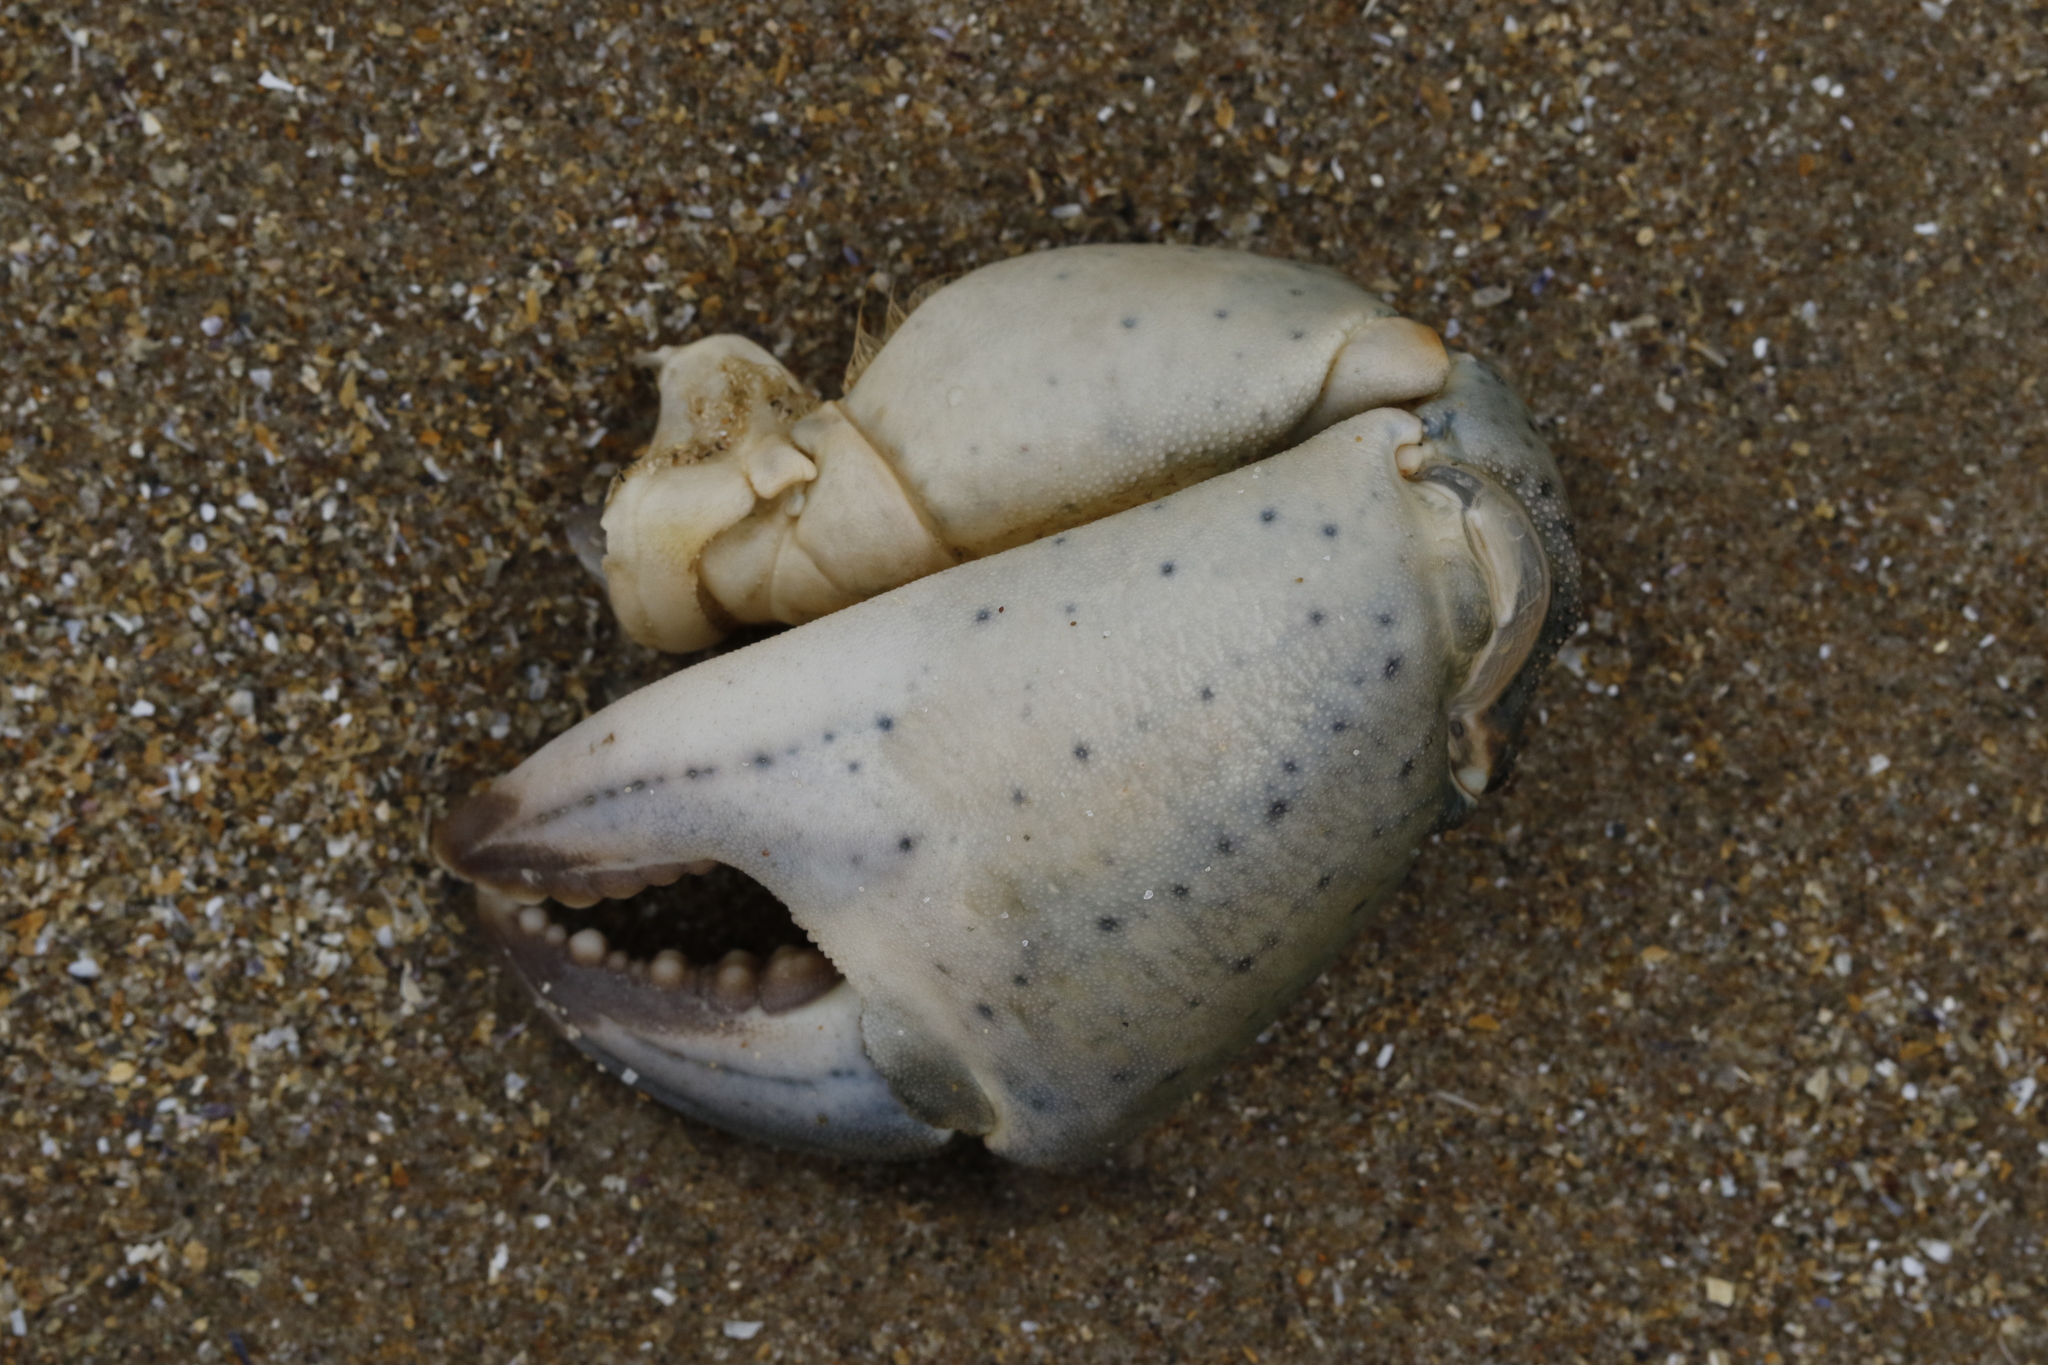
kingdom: Animalia
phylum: Arthropoda
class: Malacostraca
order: Decapoda
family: Carcinidae
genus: Carcinus
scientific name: Carcinus maenas
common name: European green crab
